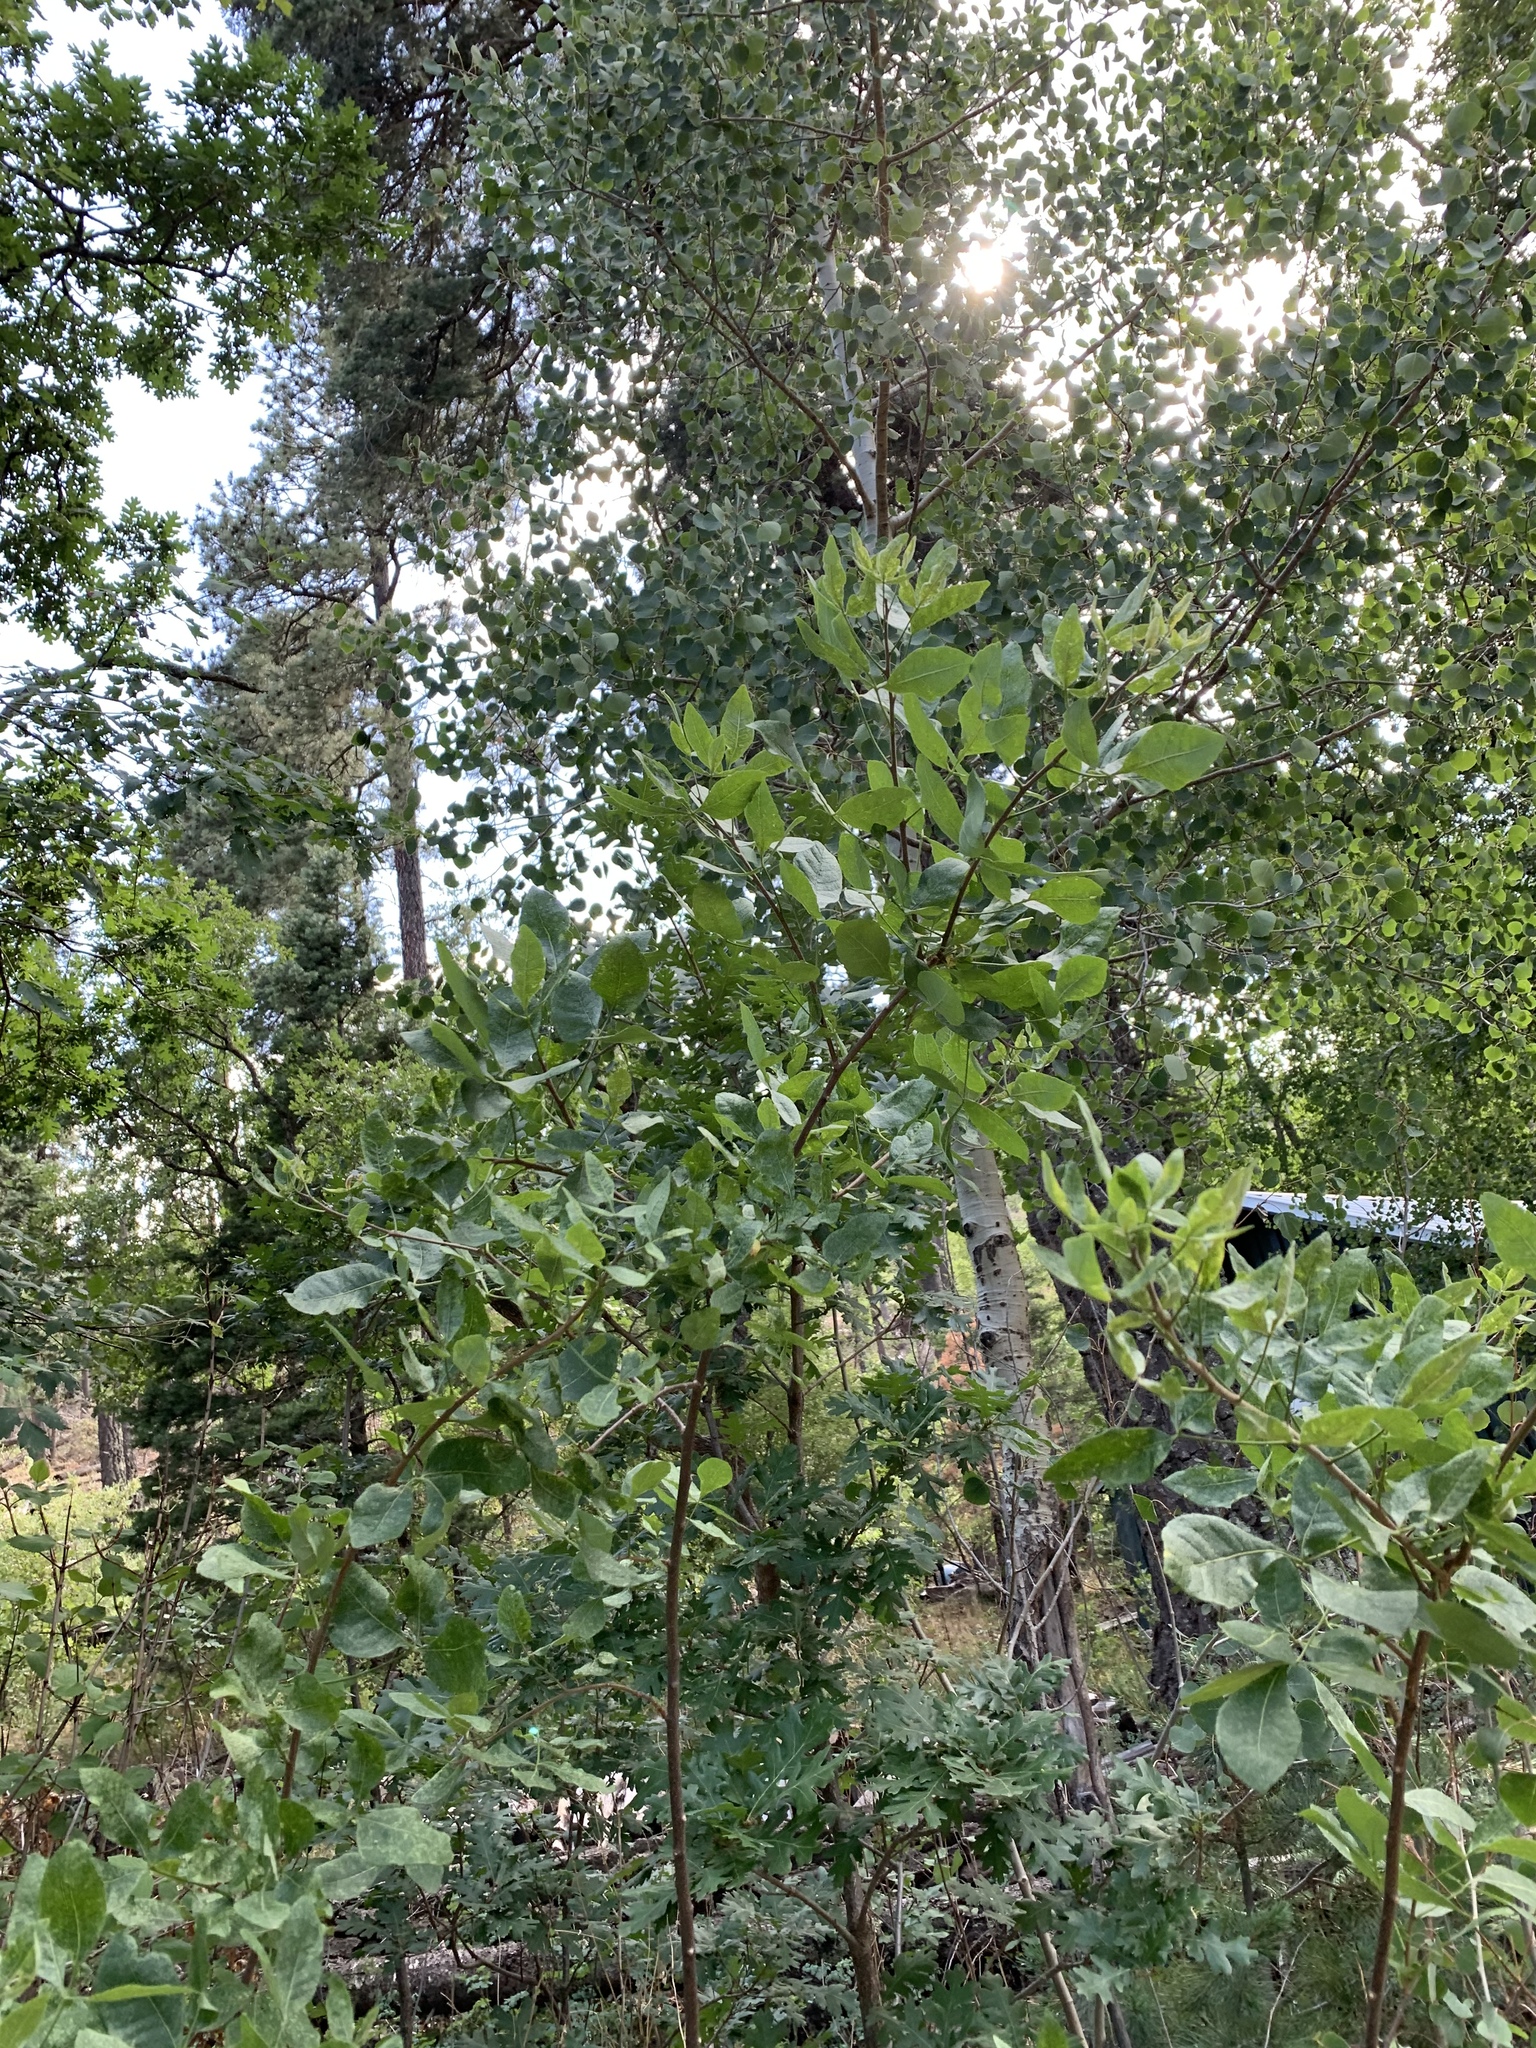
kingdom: Plantae
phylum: Tracheophyta
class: Magnoliopsida
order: Sapindales
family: Rutaceae
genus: Ptelea
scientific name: Ptelea trifoliata
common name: Common hop-tree
